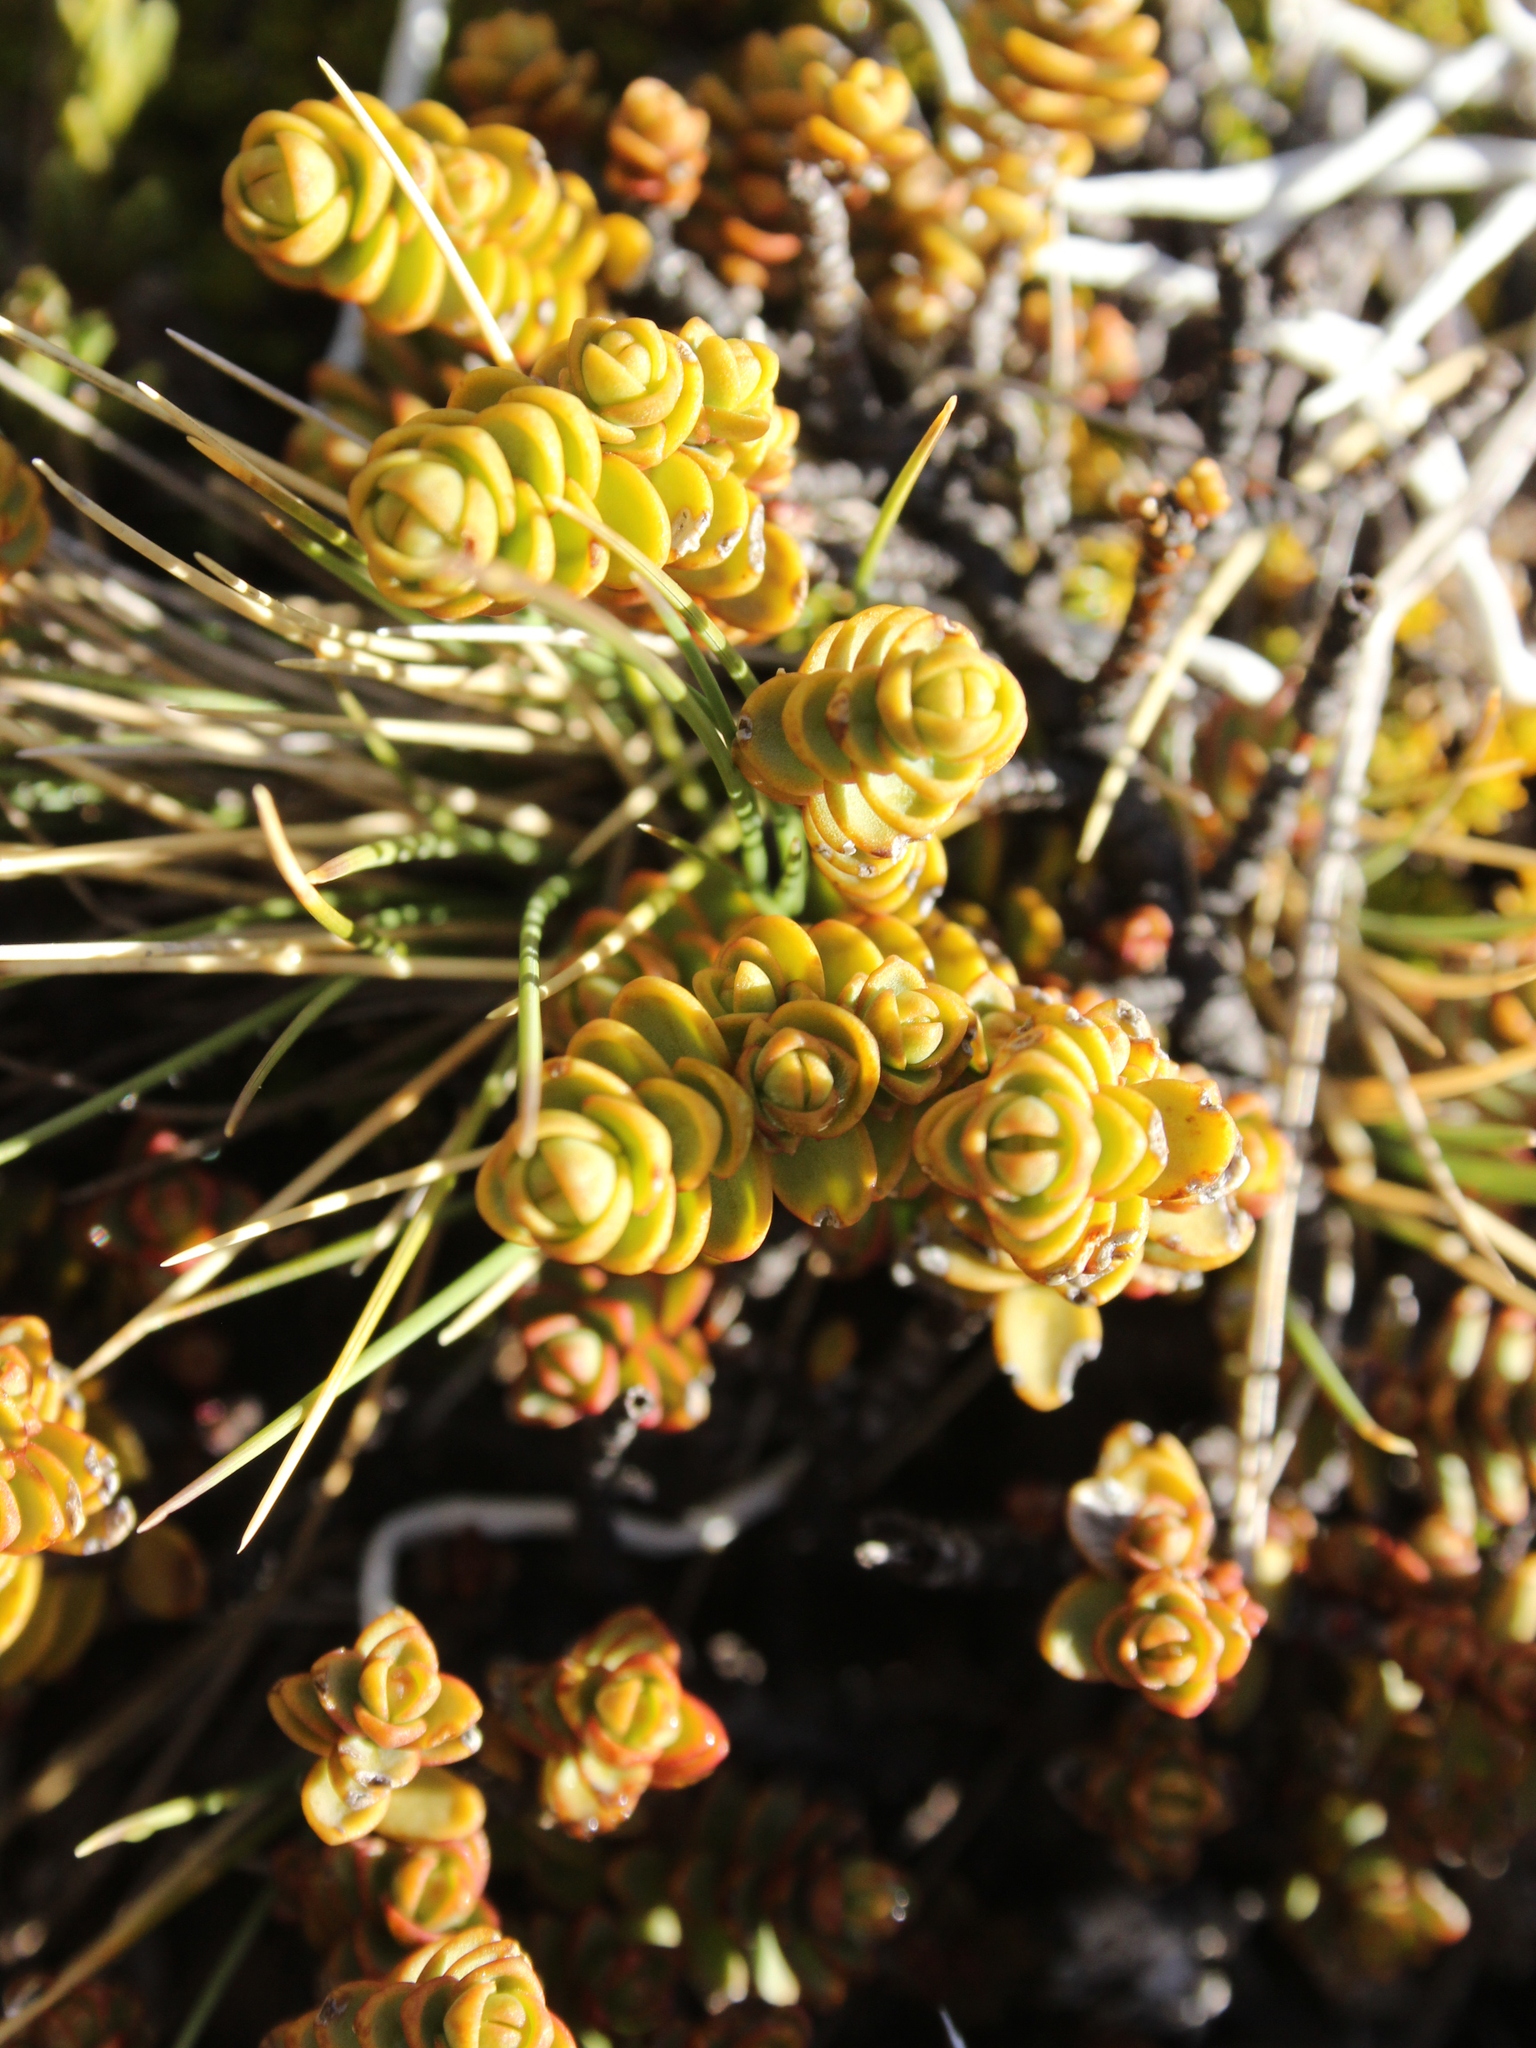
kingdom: Plantae
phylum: Tracheophyta
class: Magnoliopsida
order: Lamiales
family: Plantaginaceae
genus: Veronica
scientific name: Veronica buchananii
